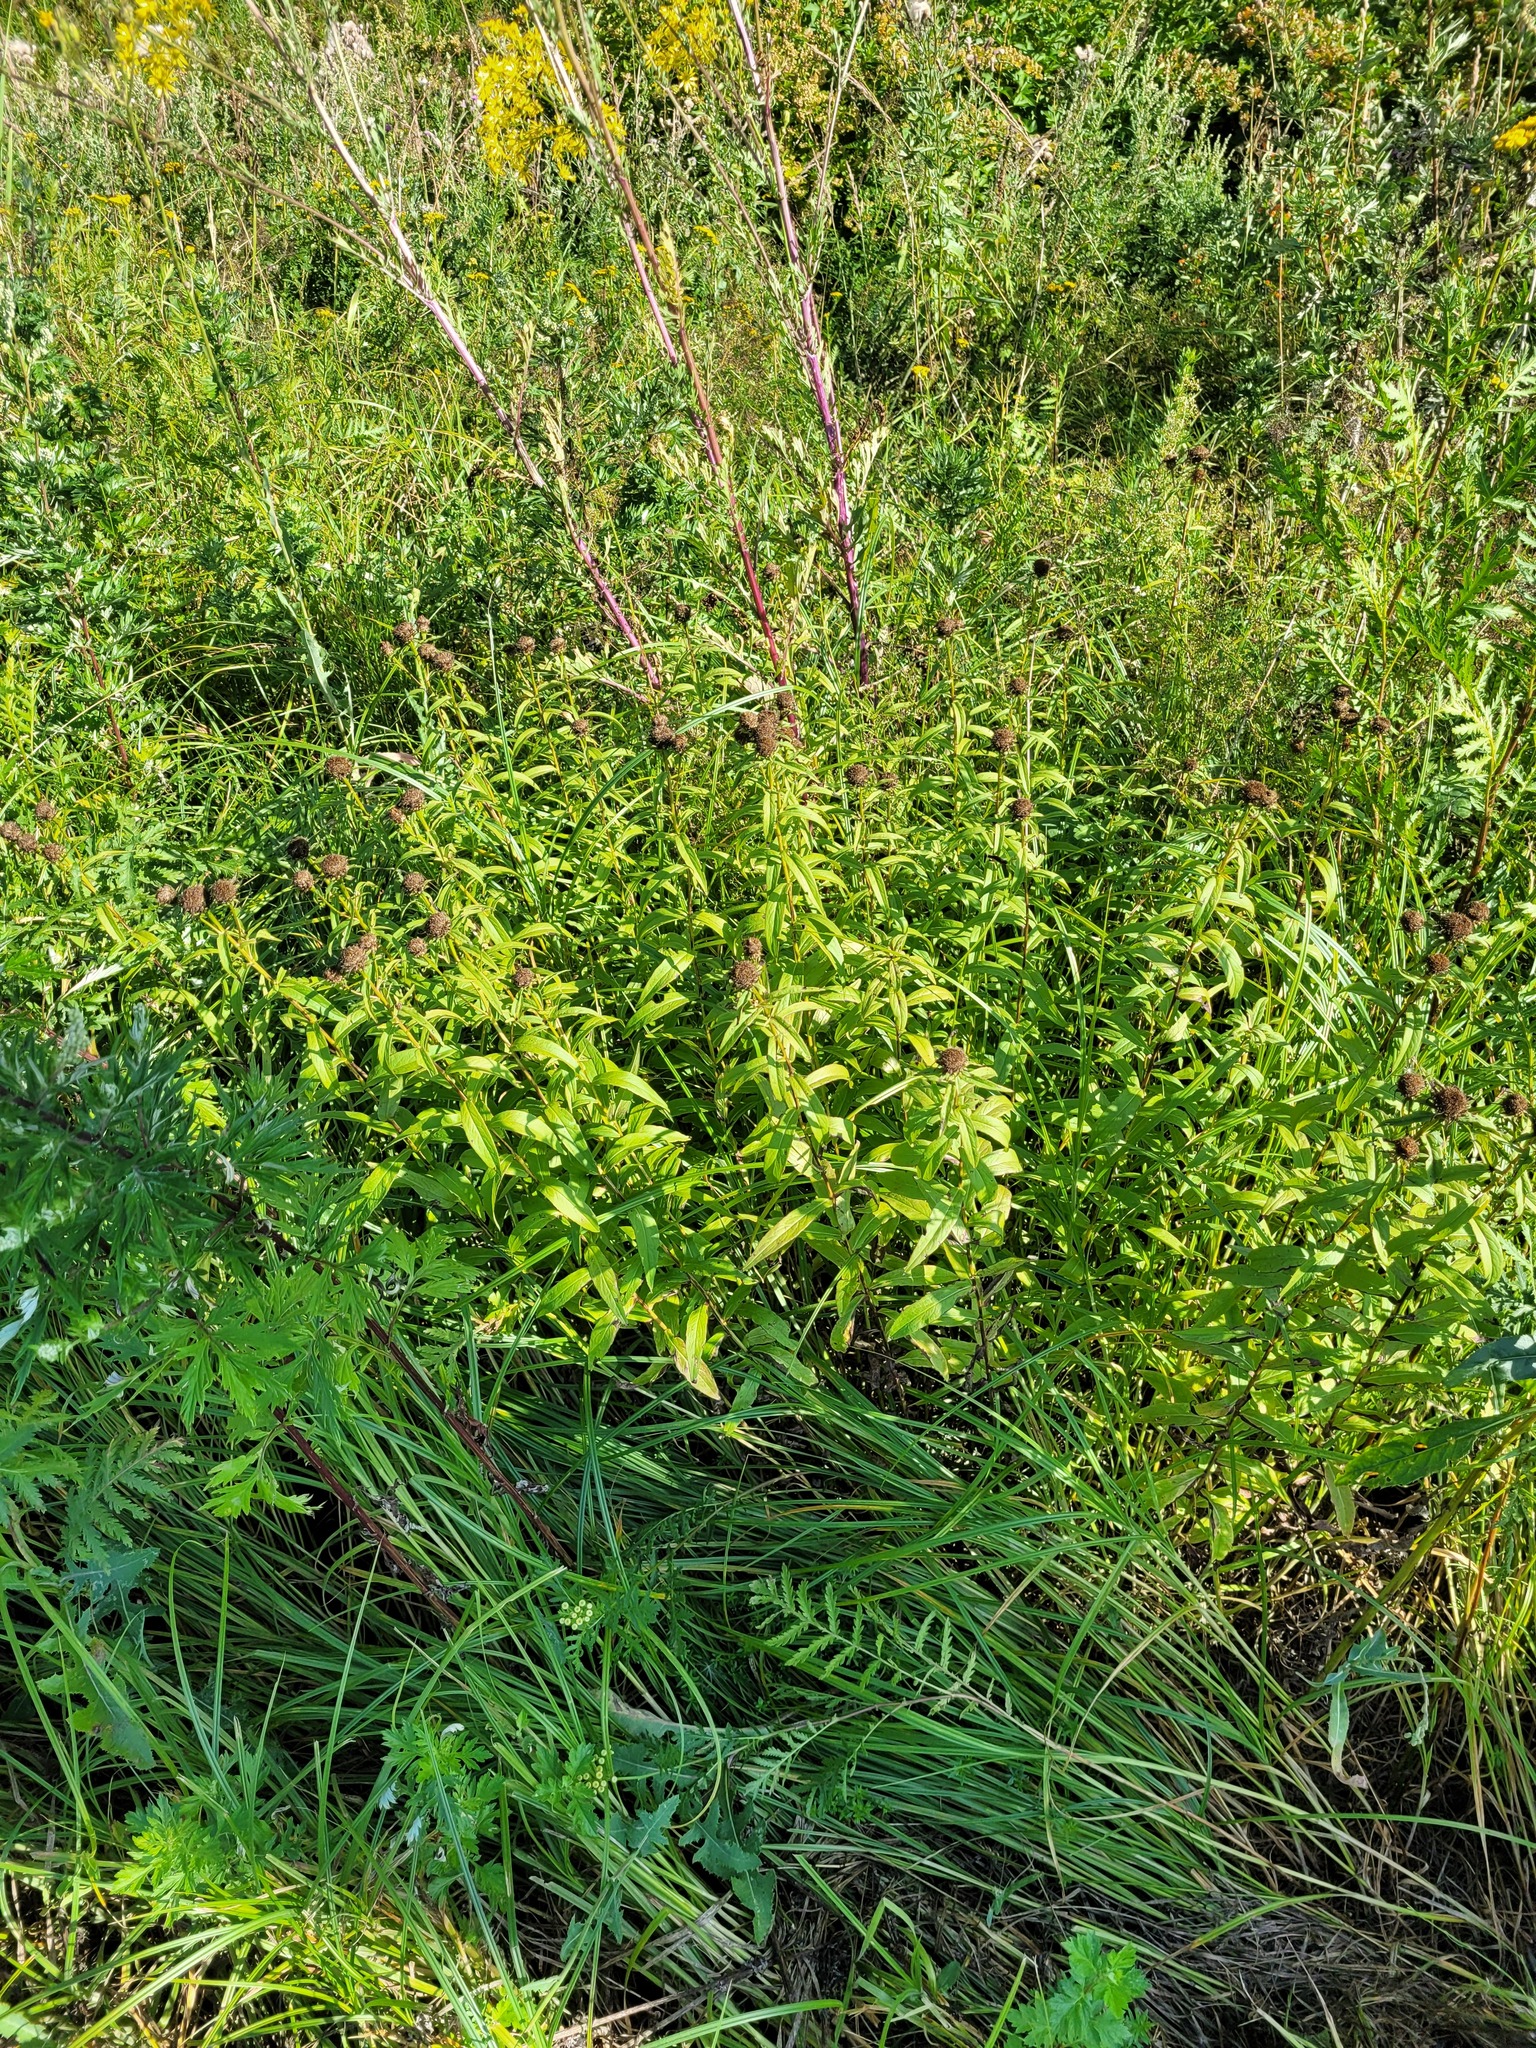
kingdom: Plantae
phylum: Tracheophyta
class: Magnoliopsida
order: Asterales
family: Asteraceae
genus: Pentanema
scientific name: Pentanema salicinum
